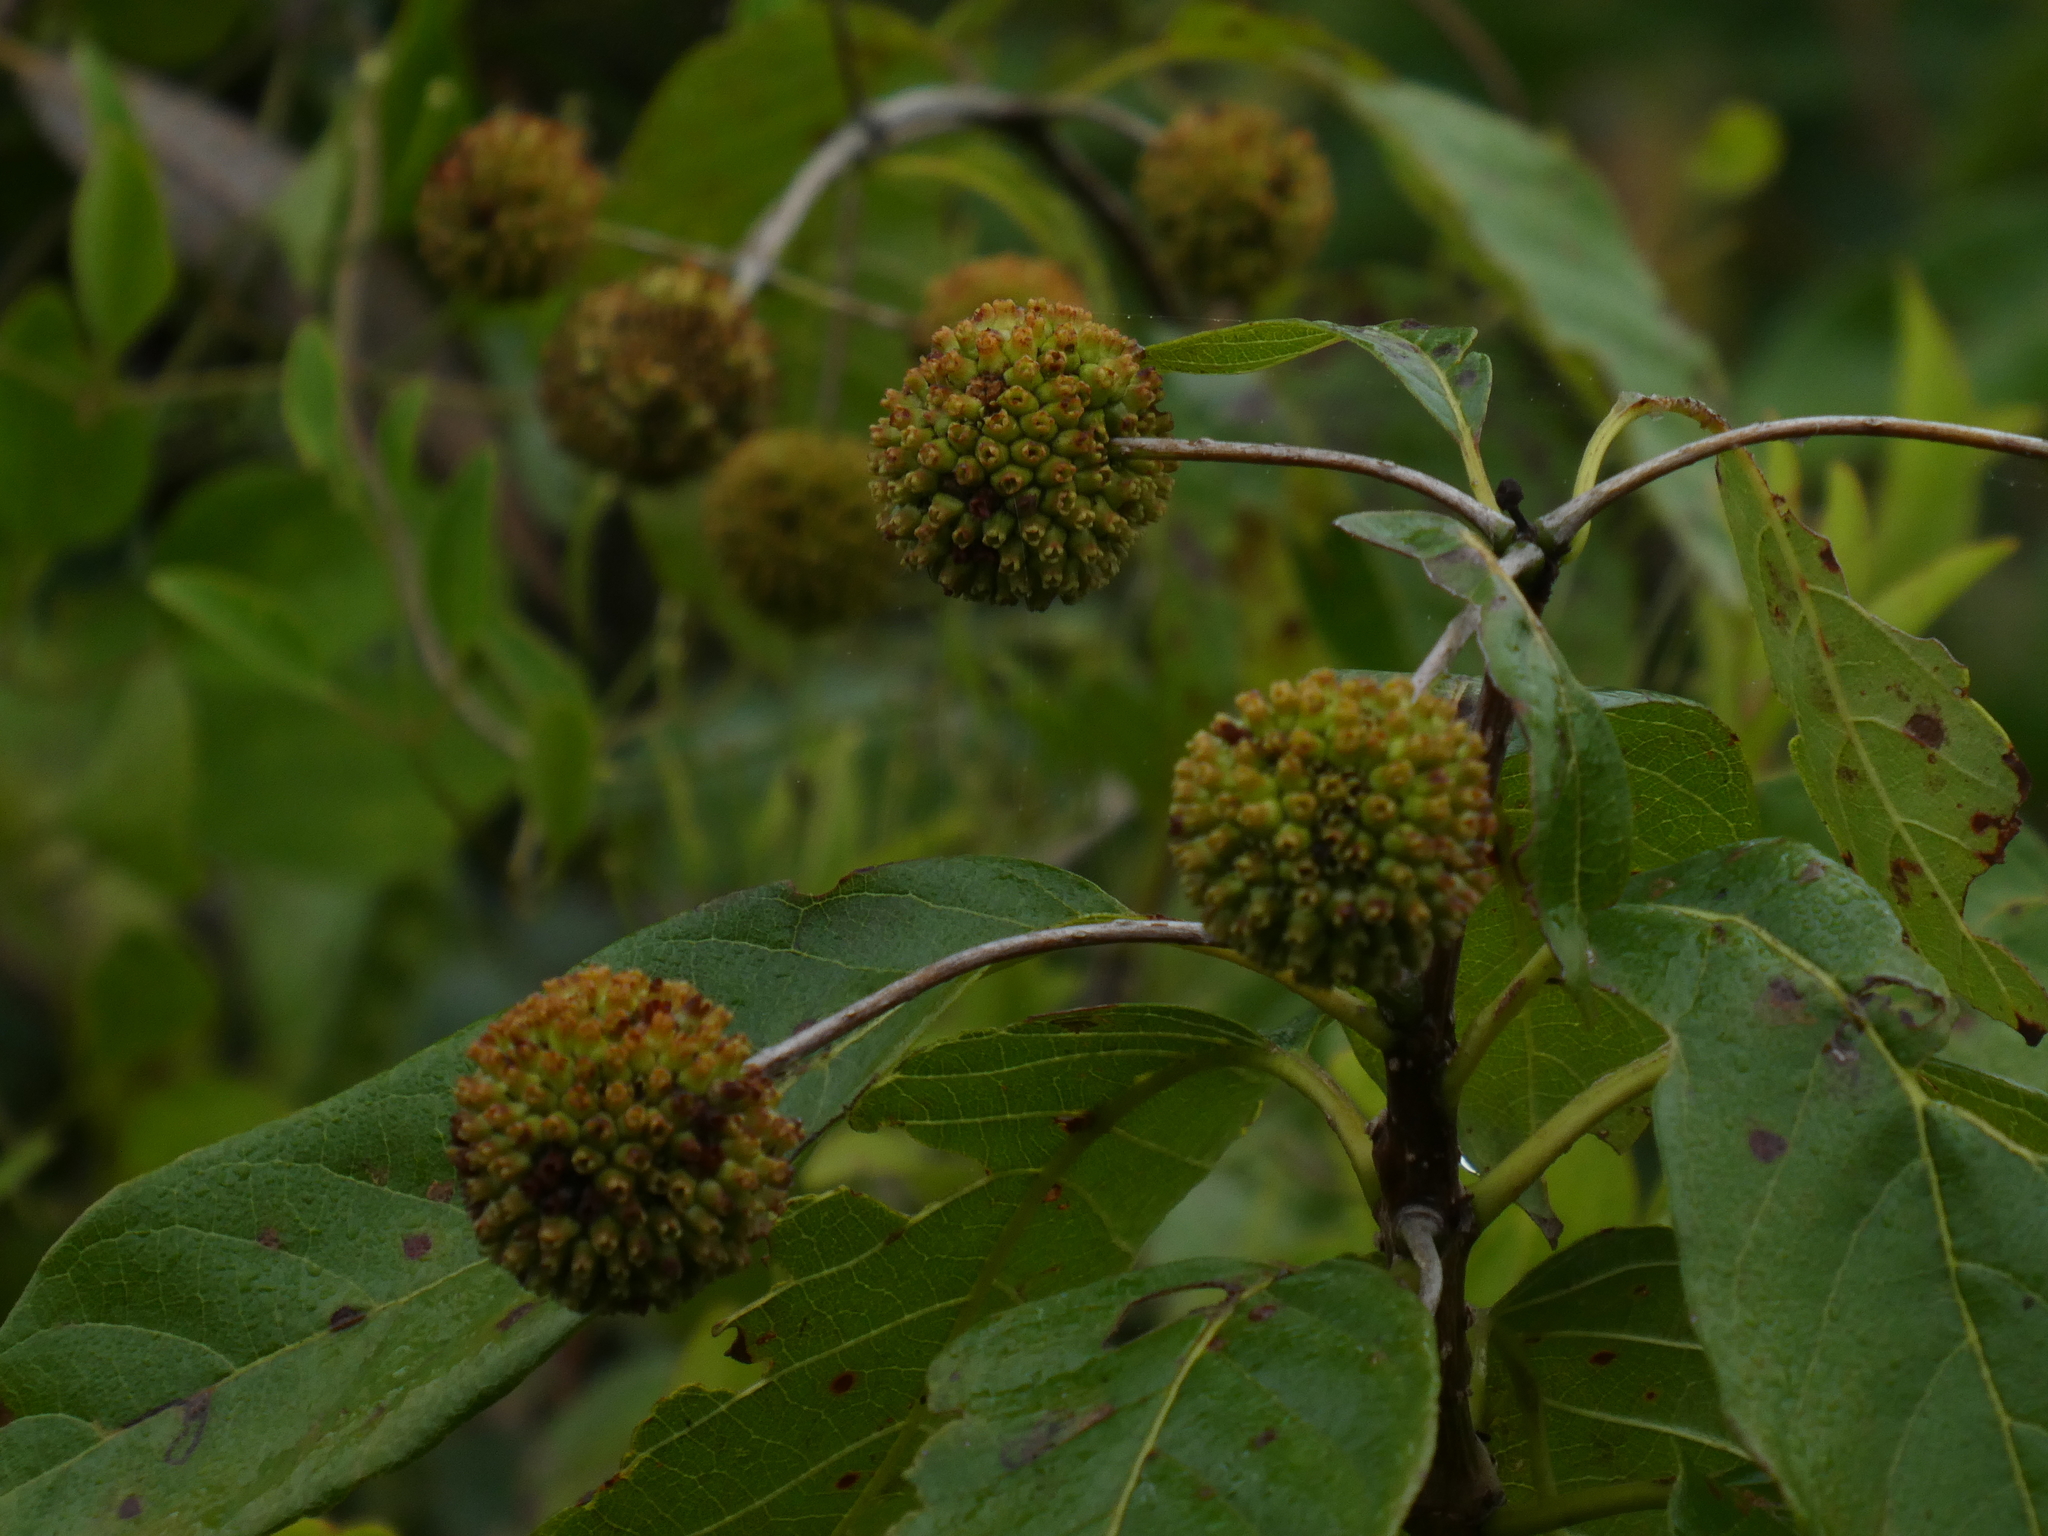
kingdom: Plantae
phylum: Tracheophyta
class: Magnoliopsida
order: Gentianales
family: Rubiaceae
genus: Cephalanthus
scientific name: Cephalanthus occidentalis
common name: Button-willow
